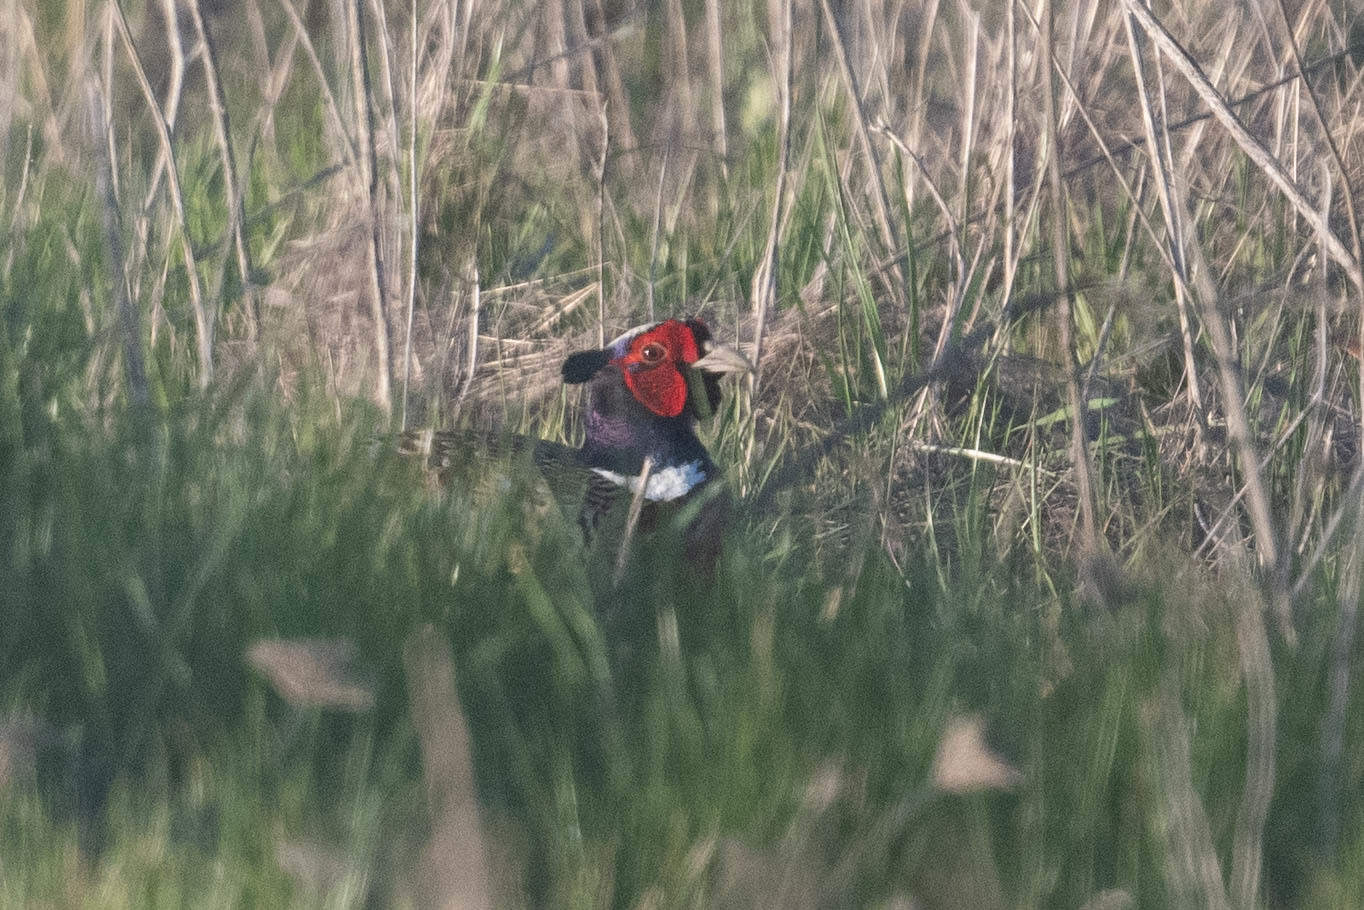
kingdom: Animalia
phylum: Chordata
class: Aves
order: Galliformes
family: Phasianidae
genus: Phasianus
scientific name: Phasianus colchicus
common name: Common pheasant
